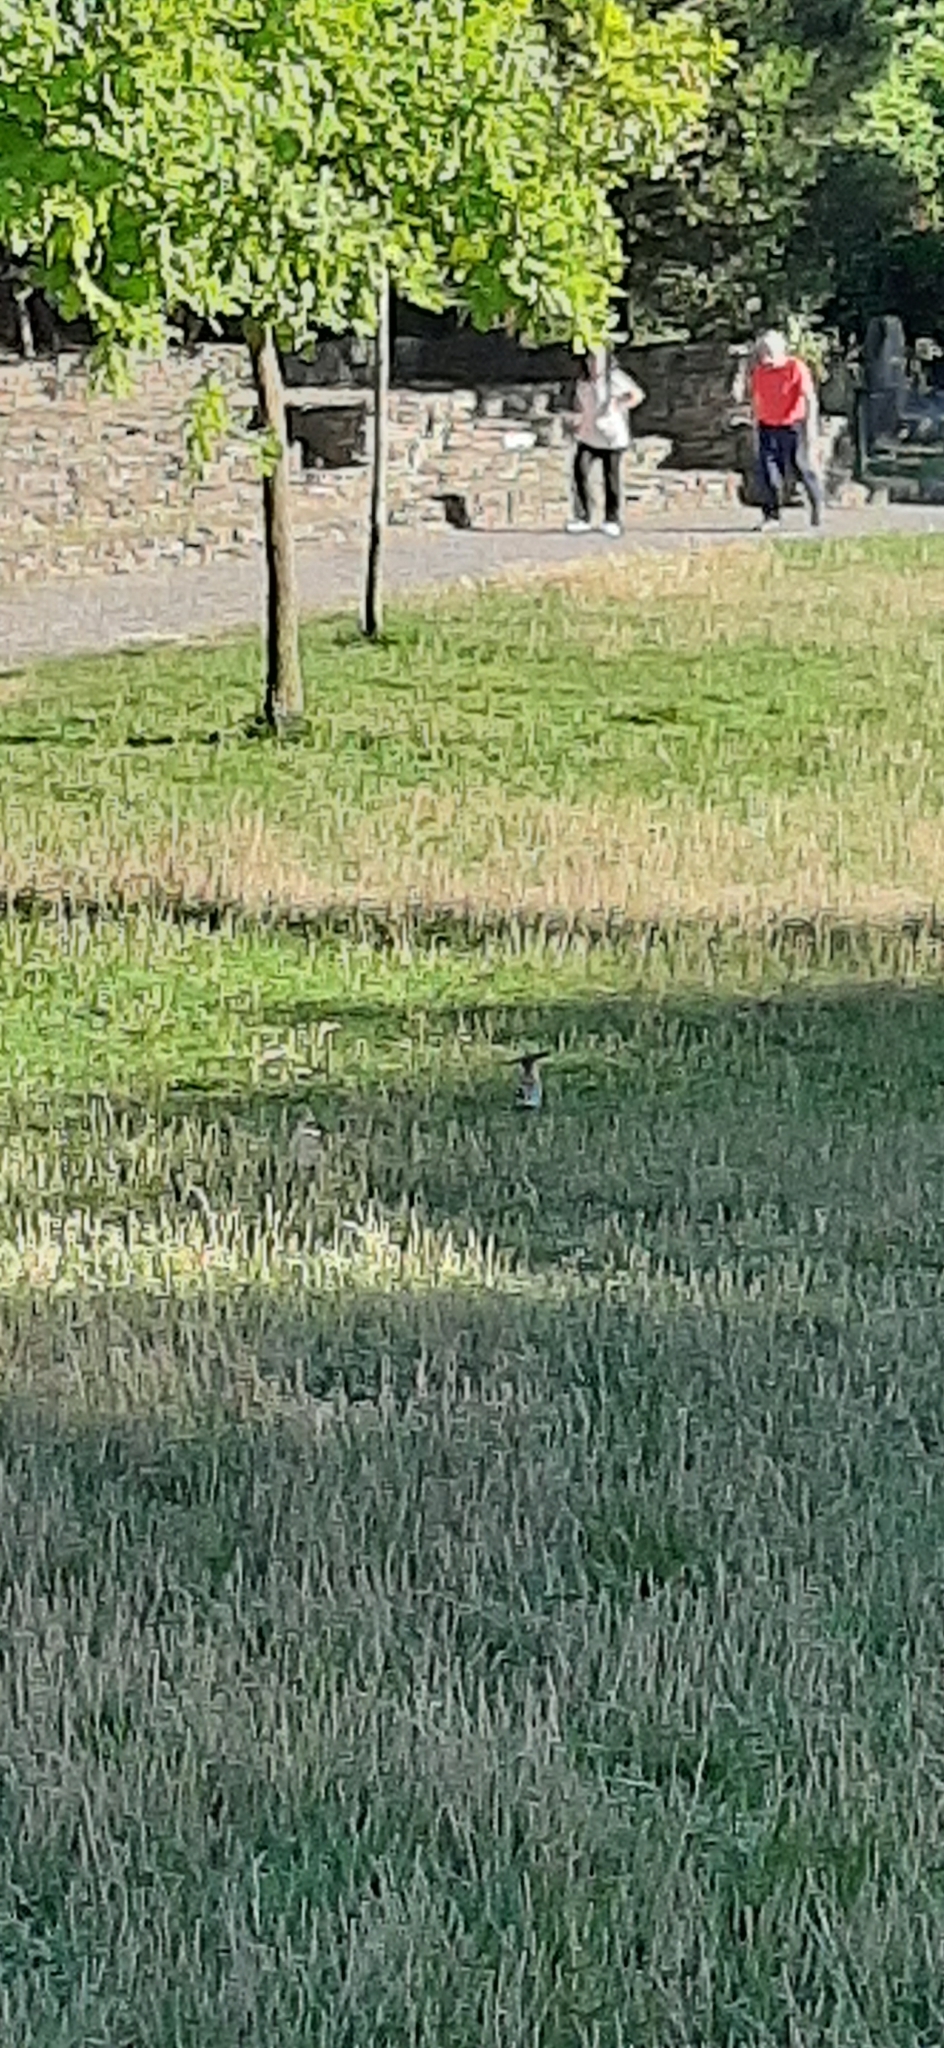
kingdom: Animalia
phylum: Chordata
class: Aves
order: Bucerotiformes
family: Upupidae
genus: Upupa
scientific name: Upupa epops
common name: Eurasian hoopoe
